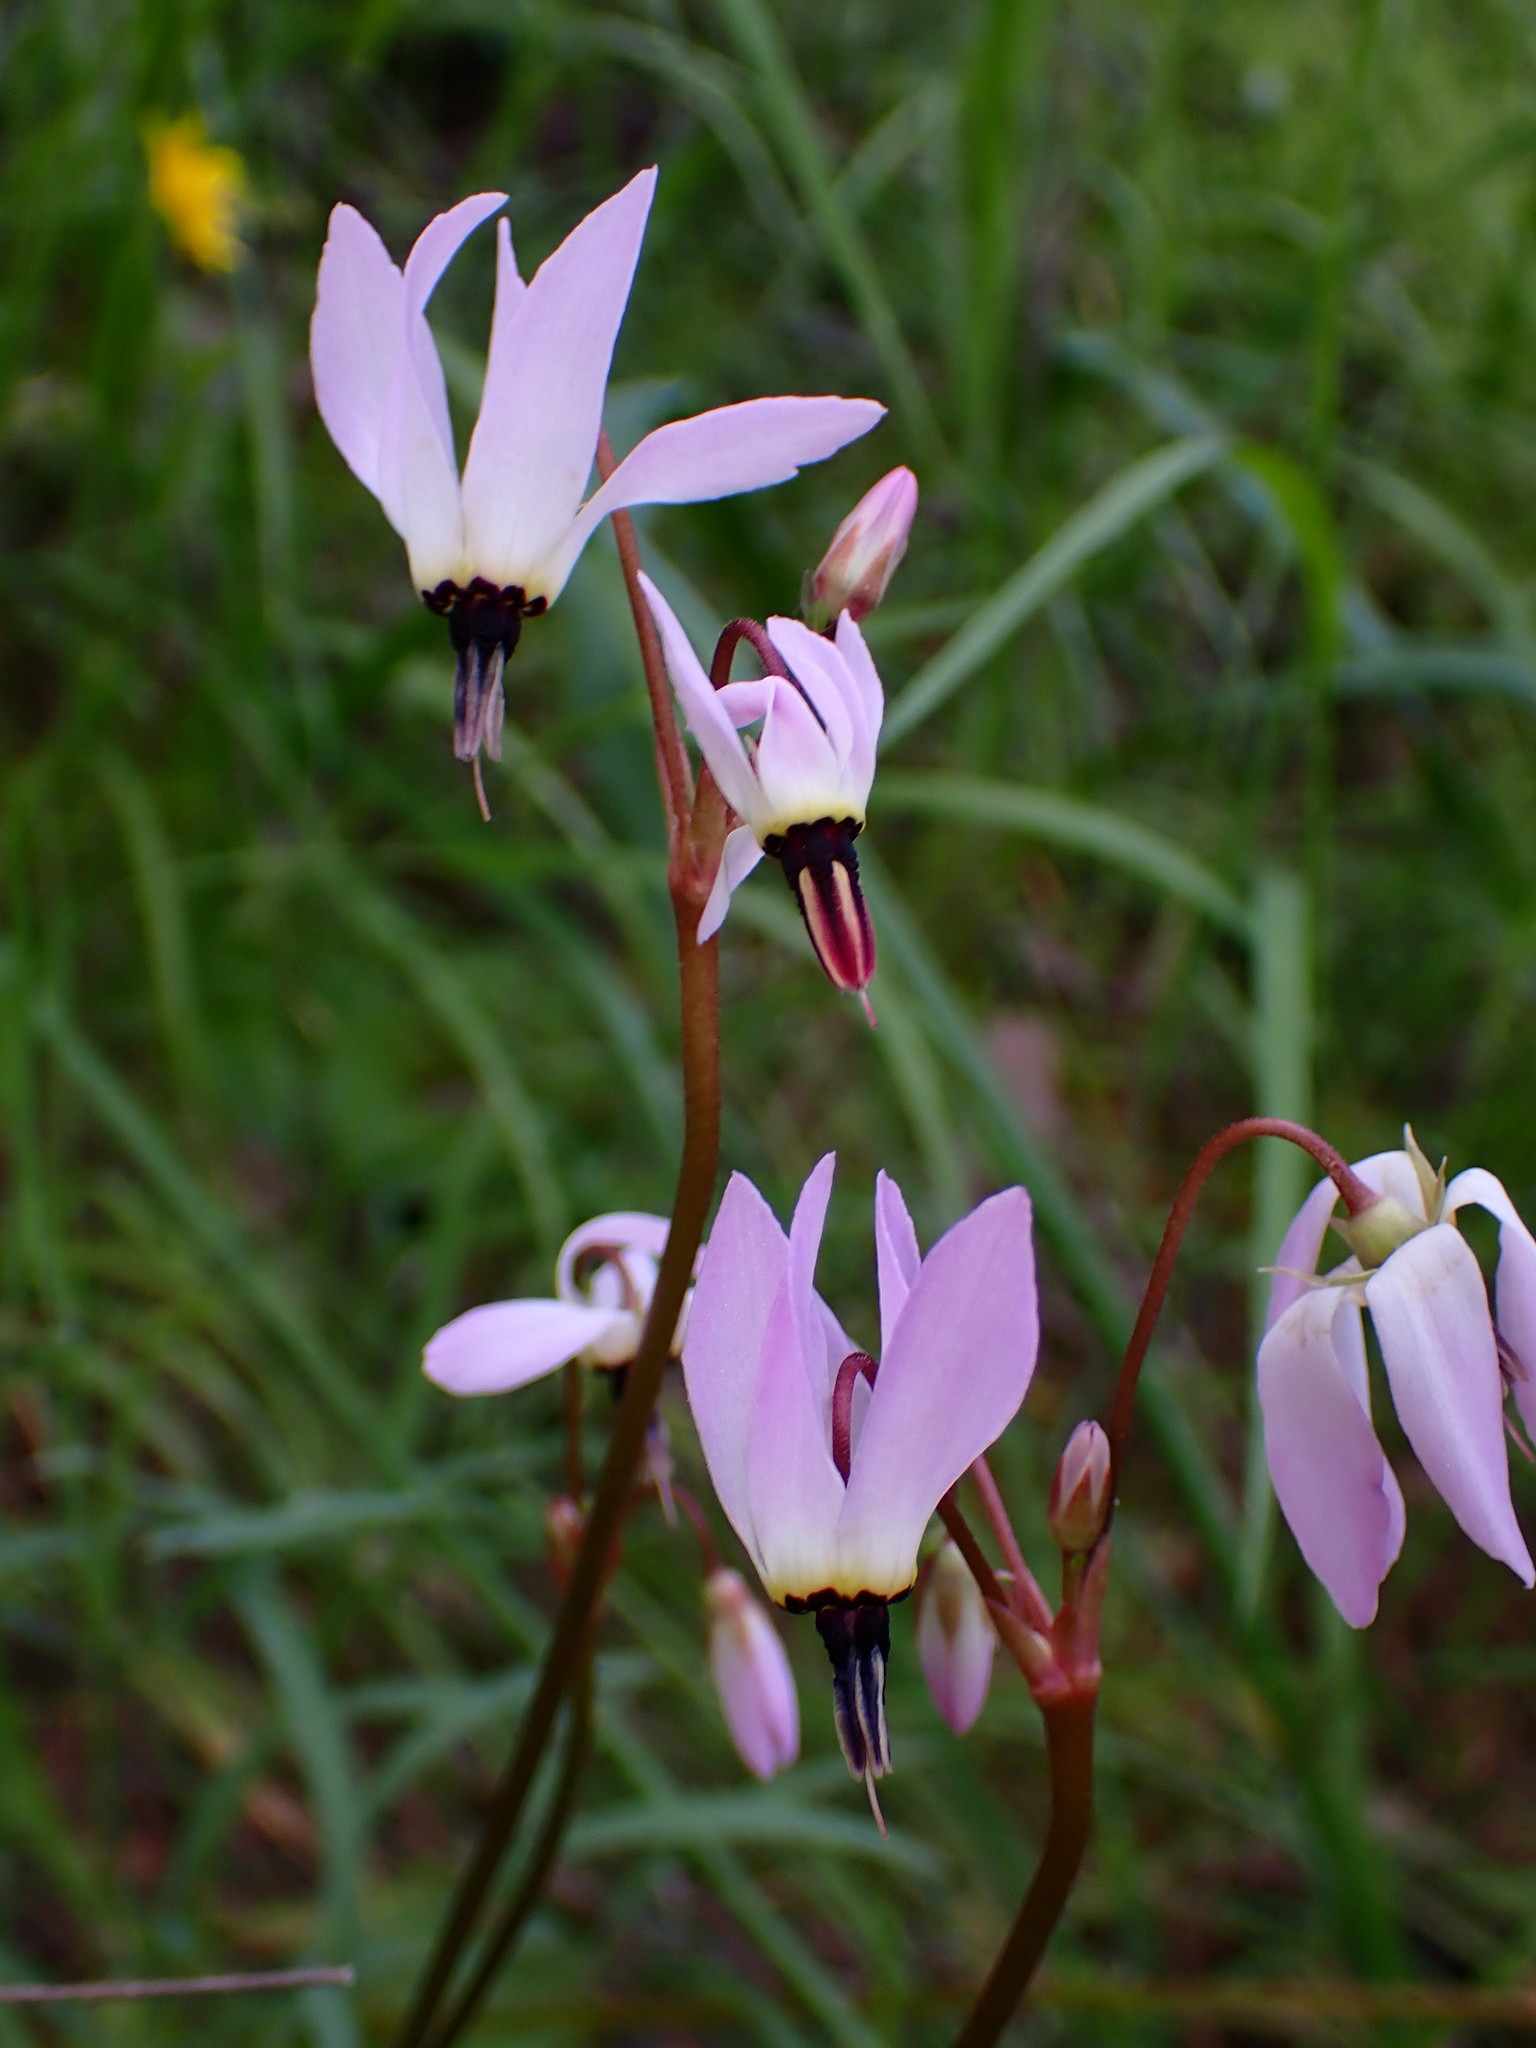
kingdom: Plantae
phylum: Tracheophyta
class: Magnoliopsida
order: Ericales
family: Primulaceae
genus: Dodecatheon
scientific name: Dodecatheon hendersonii
